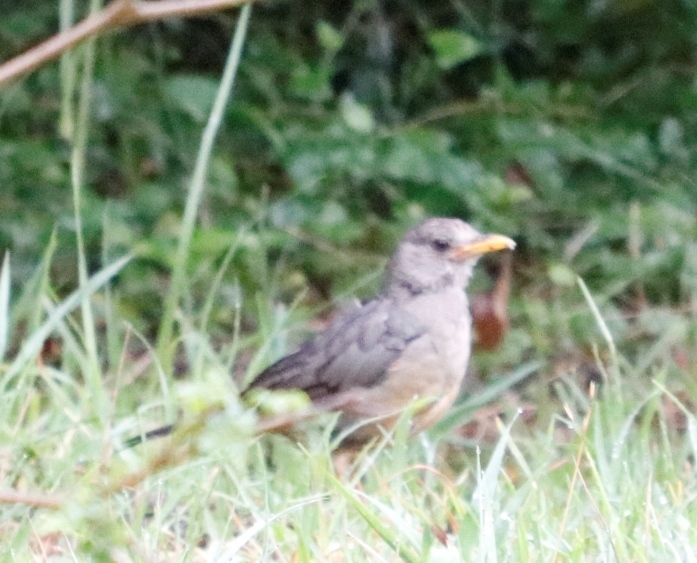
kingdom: Animalia
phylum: Chordata
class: Aves
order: Passeriformes
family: Turdidae
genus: Turdus
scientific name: Turdus olivaceus
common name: Olive thrush
